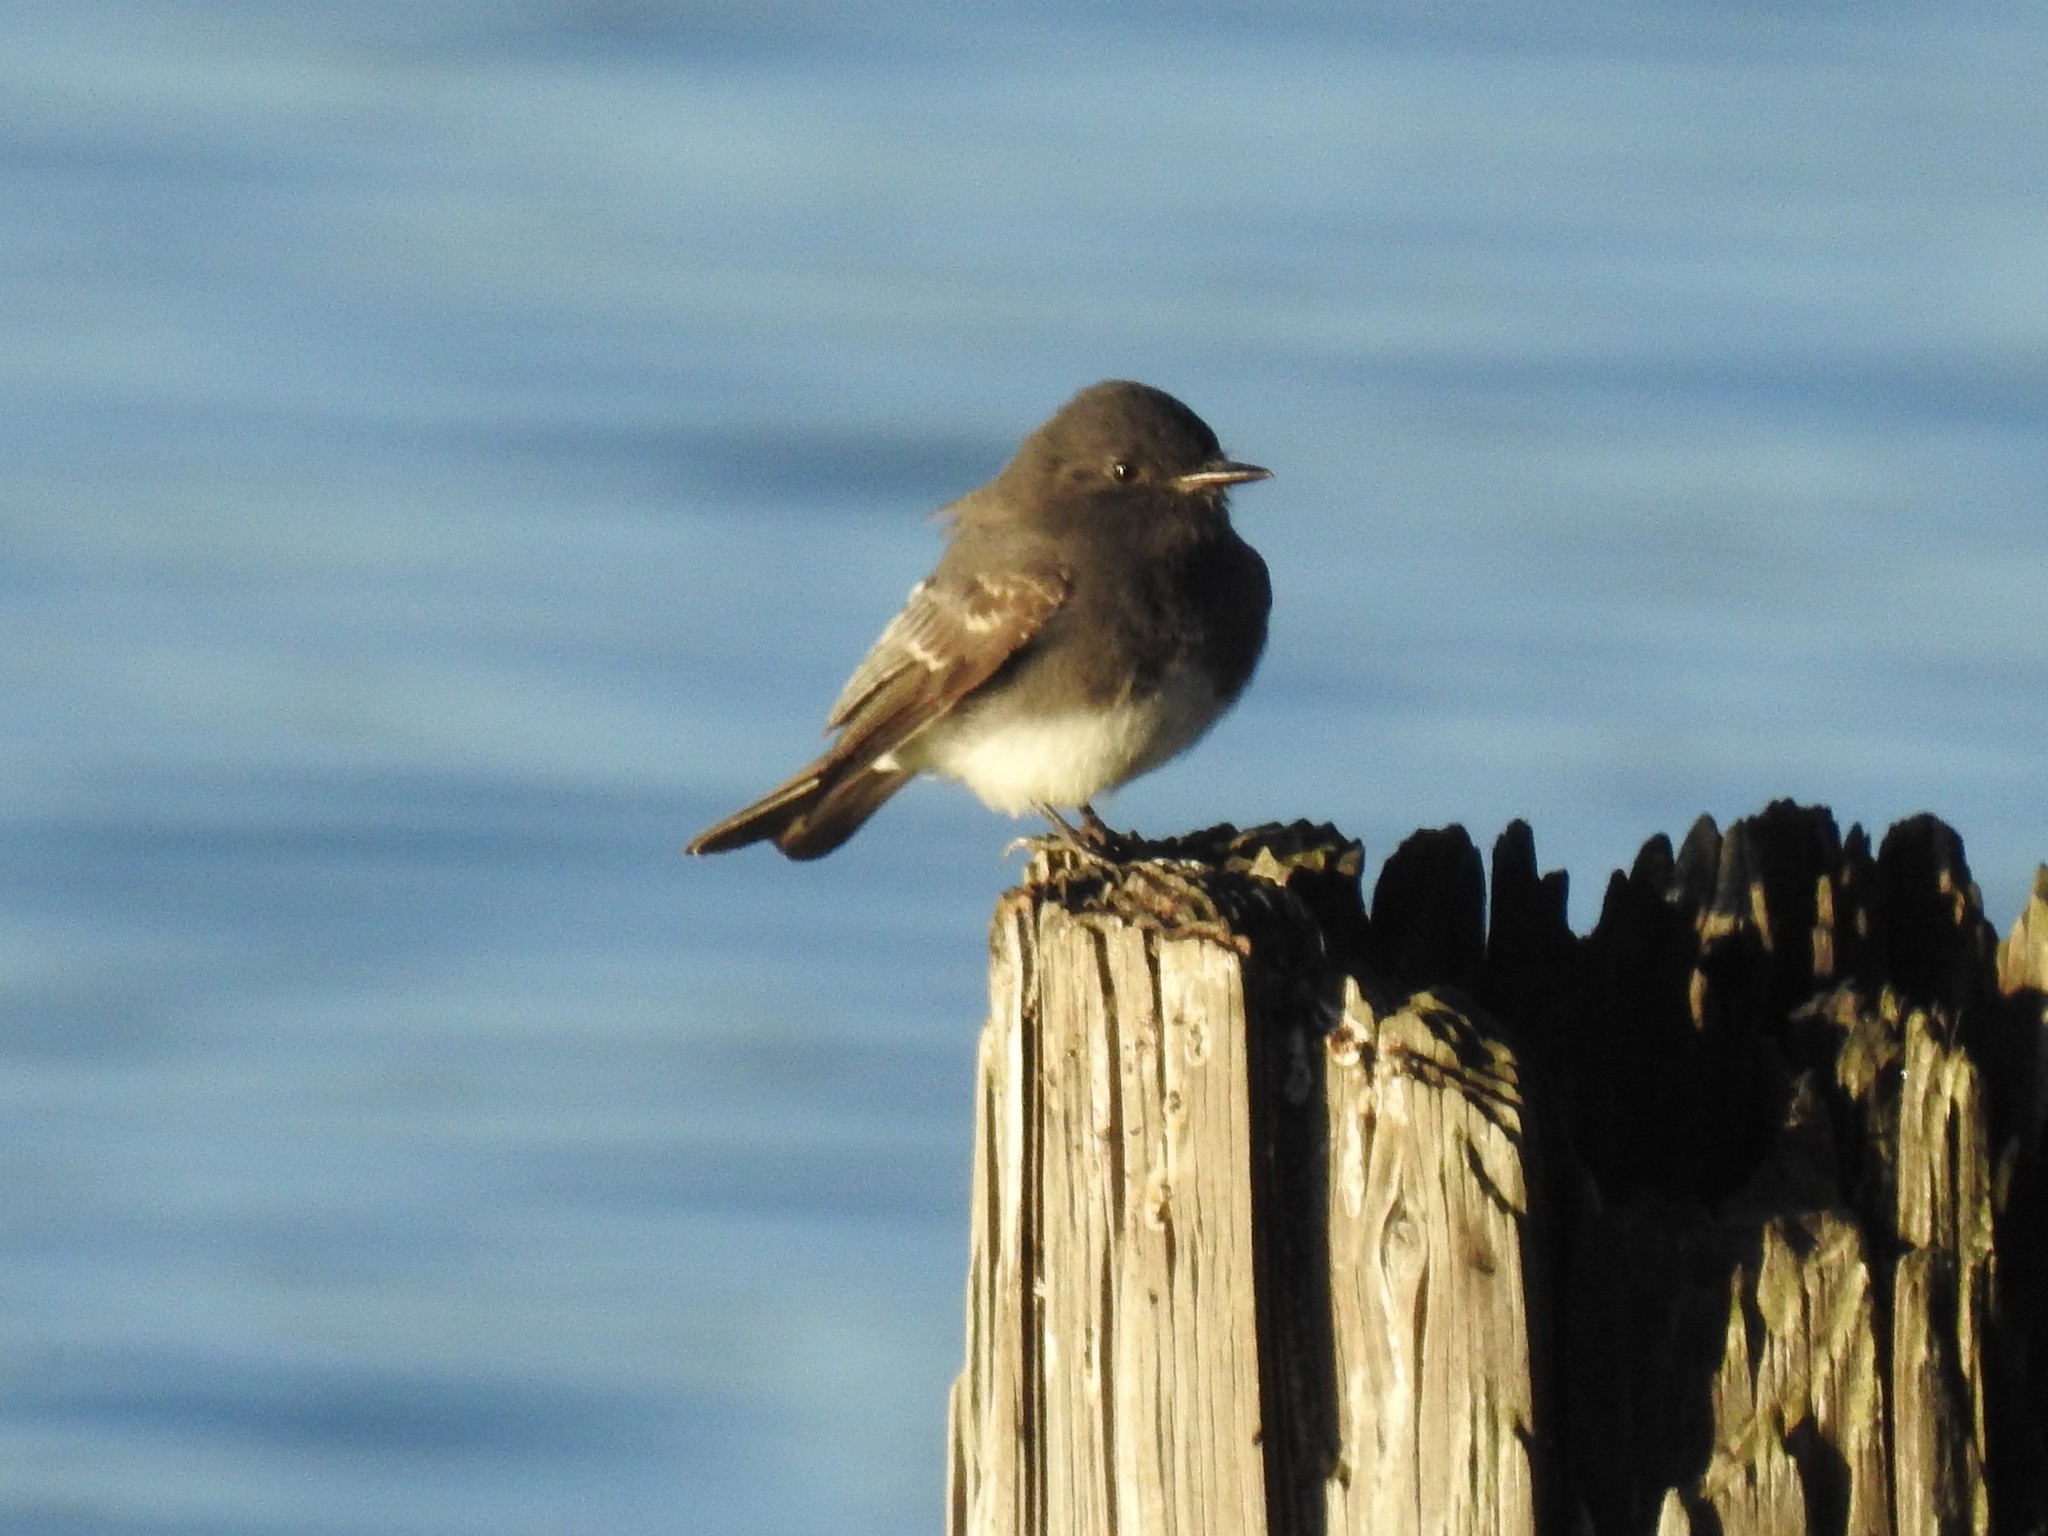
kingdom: Animalia
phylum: Chordata
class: Aves
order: Passeriformes
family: Tyrannidae
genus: Sayornis
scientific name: Sayornis nigricans
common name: Black phoebe
